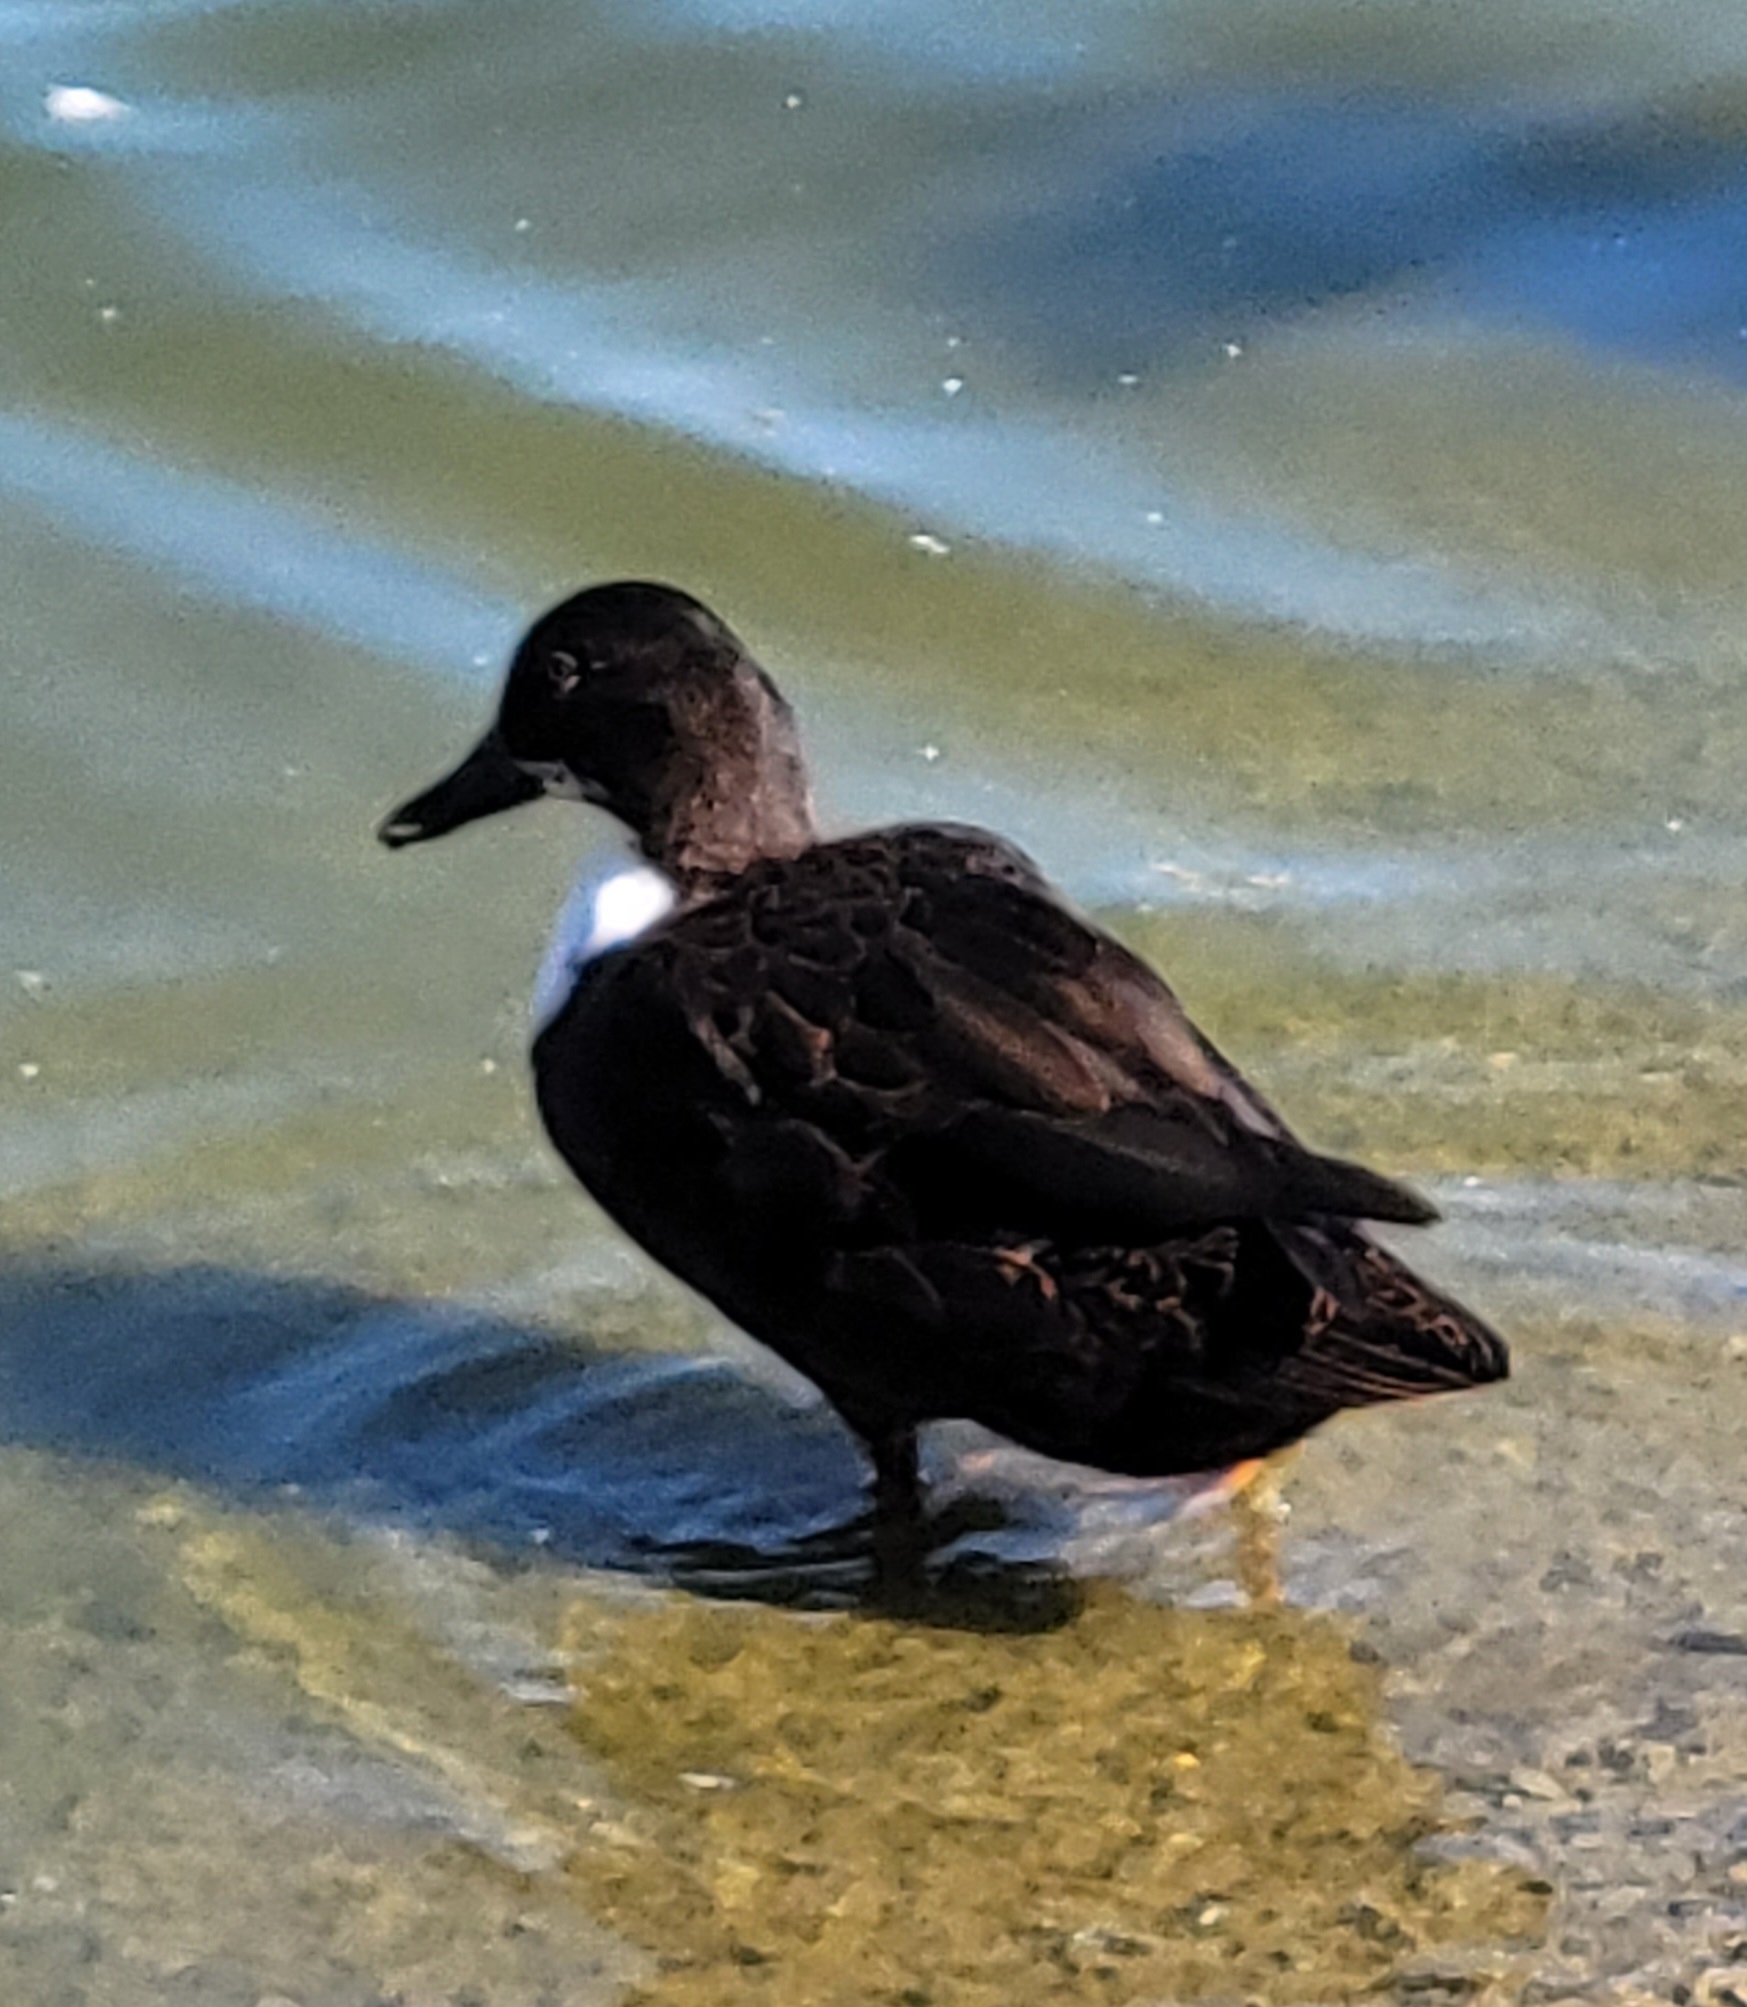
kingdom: Animalia
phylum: Chordata
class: Aves
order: Anseriformes
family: Anatidae
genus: Anas
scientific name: Anas platyrhynchos
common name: Mallard
